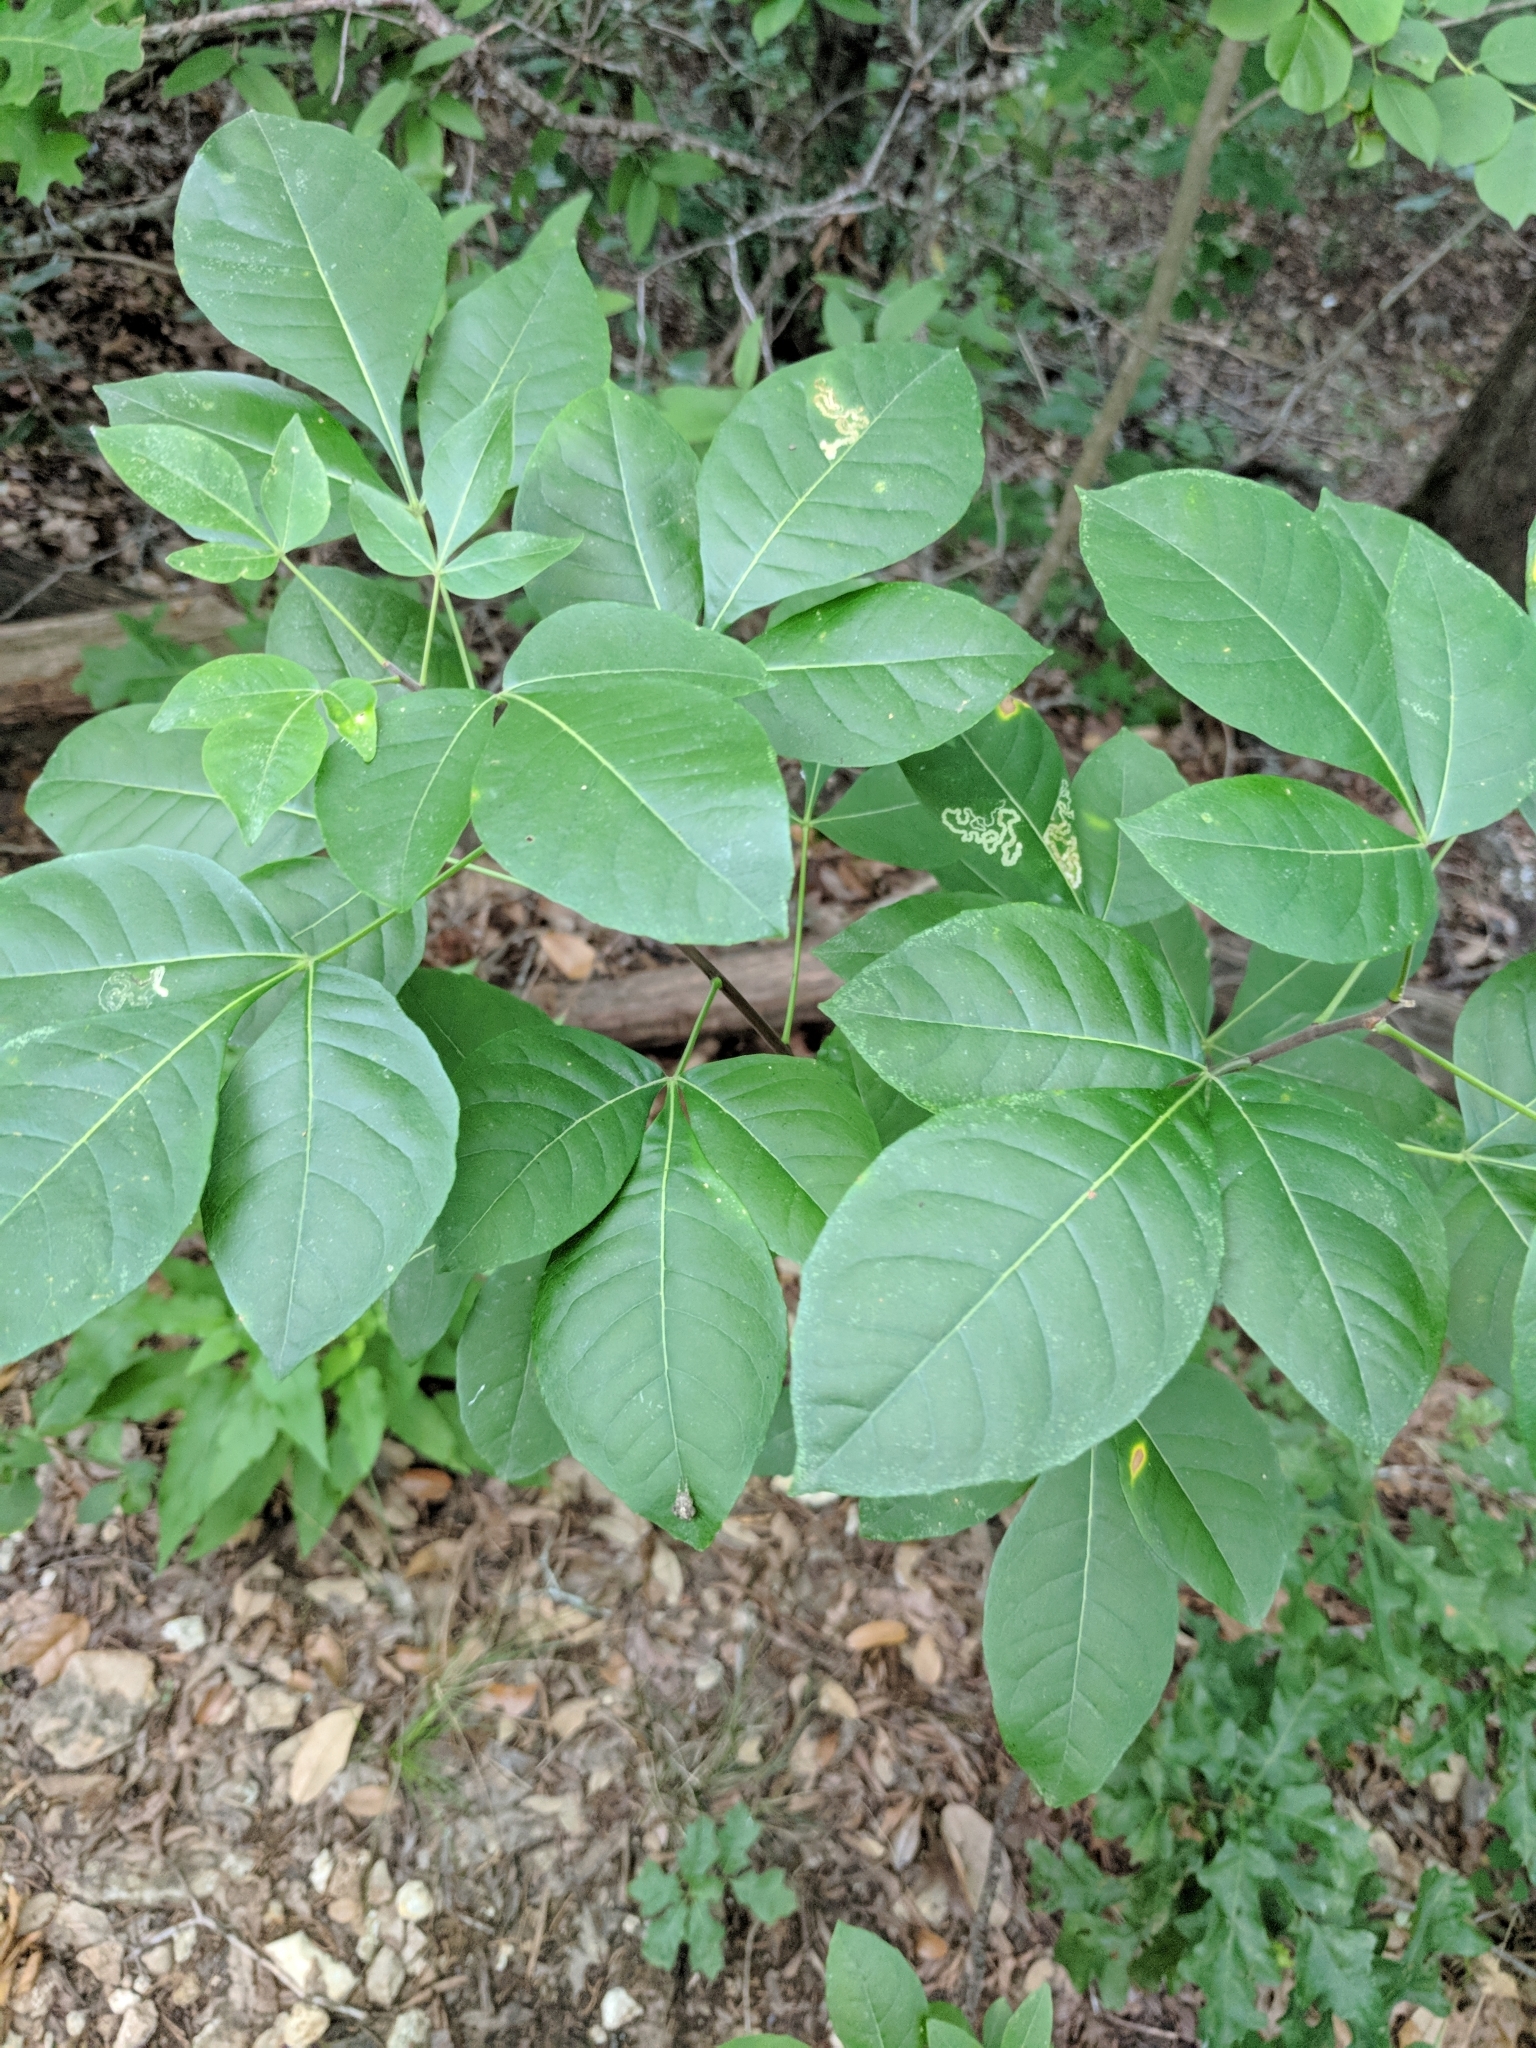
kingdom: Plantae
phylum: Tracheophyta
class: Magnoliopsida
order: Sapindales
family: Rutaceae
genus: Ptelea
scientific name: Ptelea trifoliata
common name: Common hop-tree
